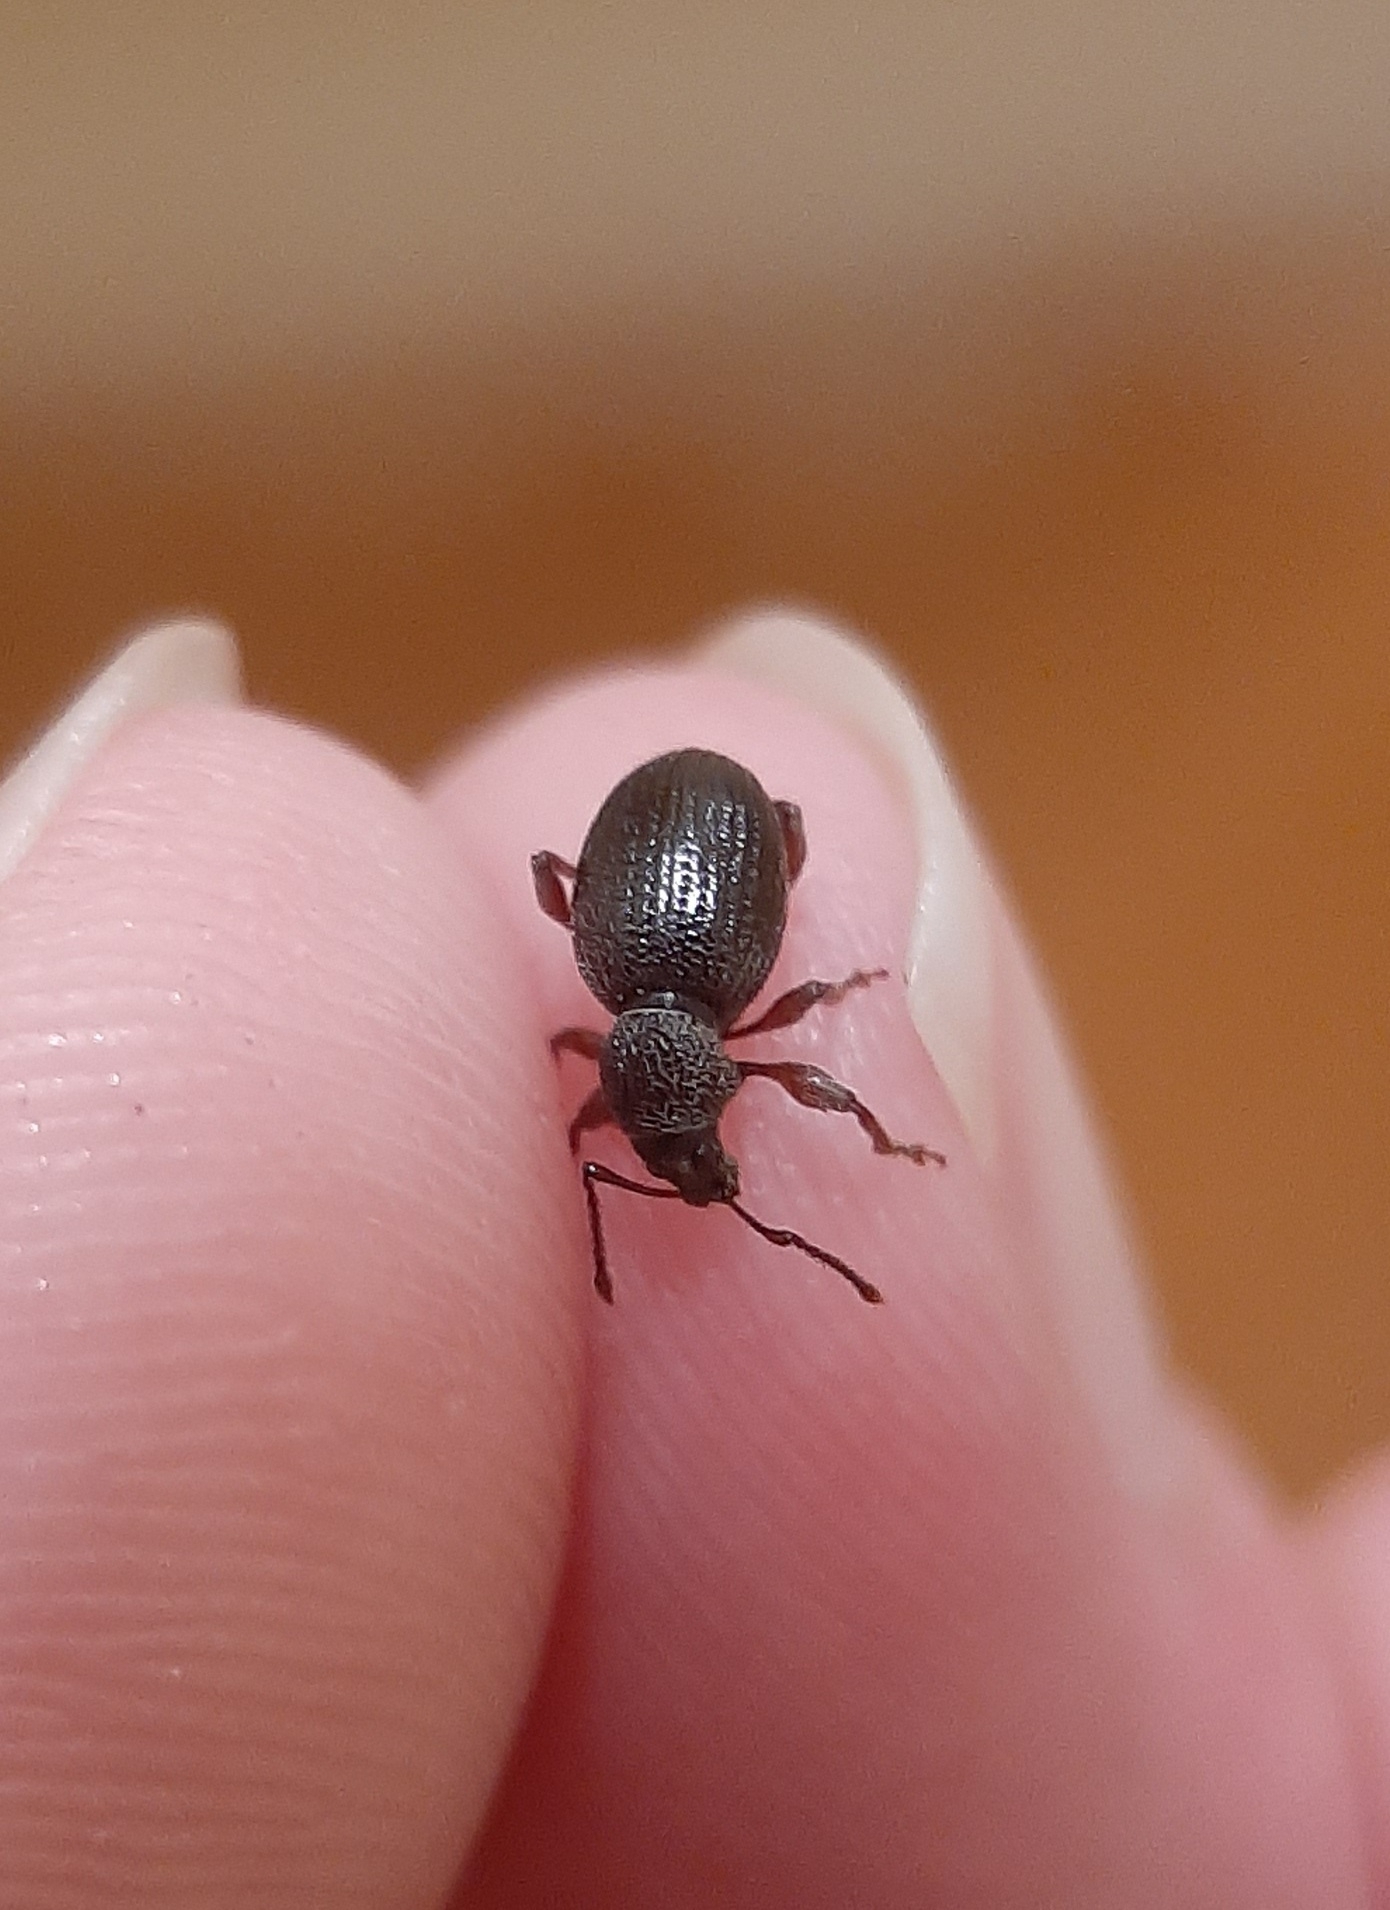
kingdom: Animalia
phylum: Arthropoda
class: Insecta
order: Coleoptera
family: Curculionidae
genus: Otiorhynchus
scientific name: Otiorhynchus ovatus
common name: Strawberry root weevil
